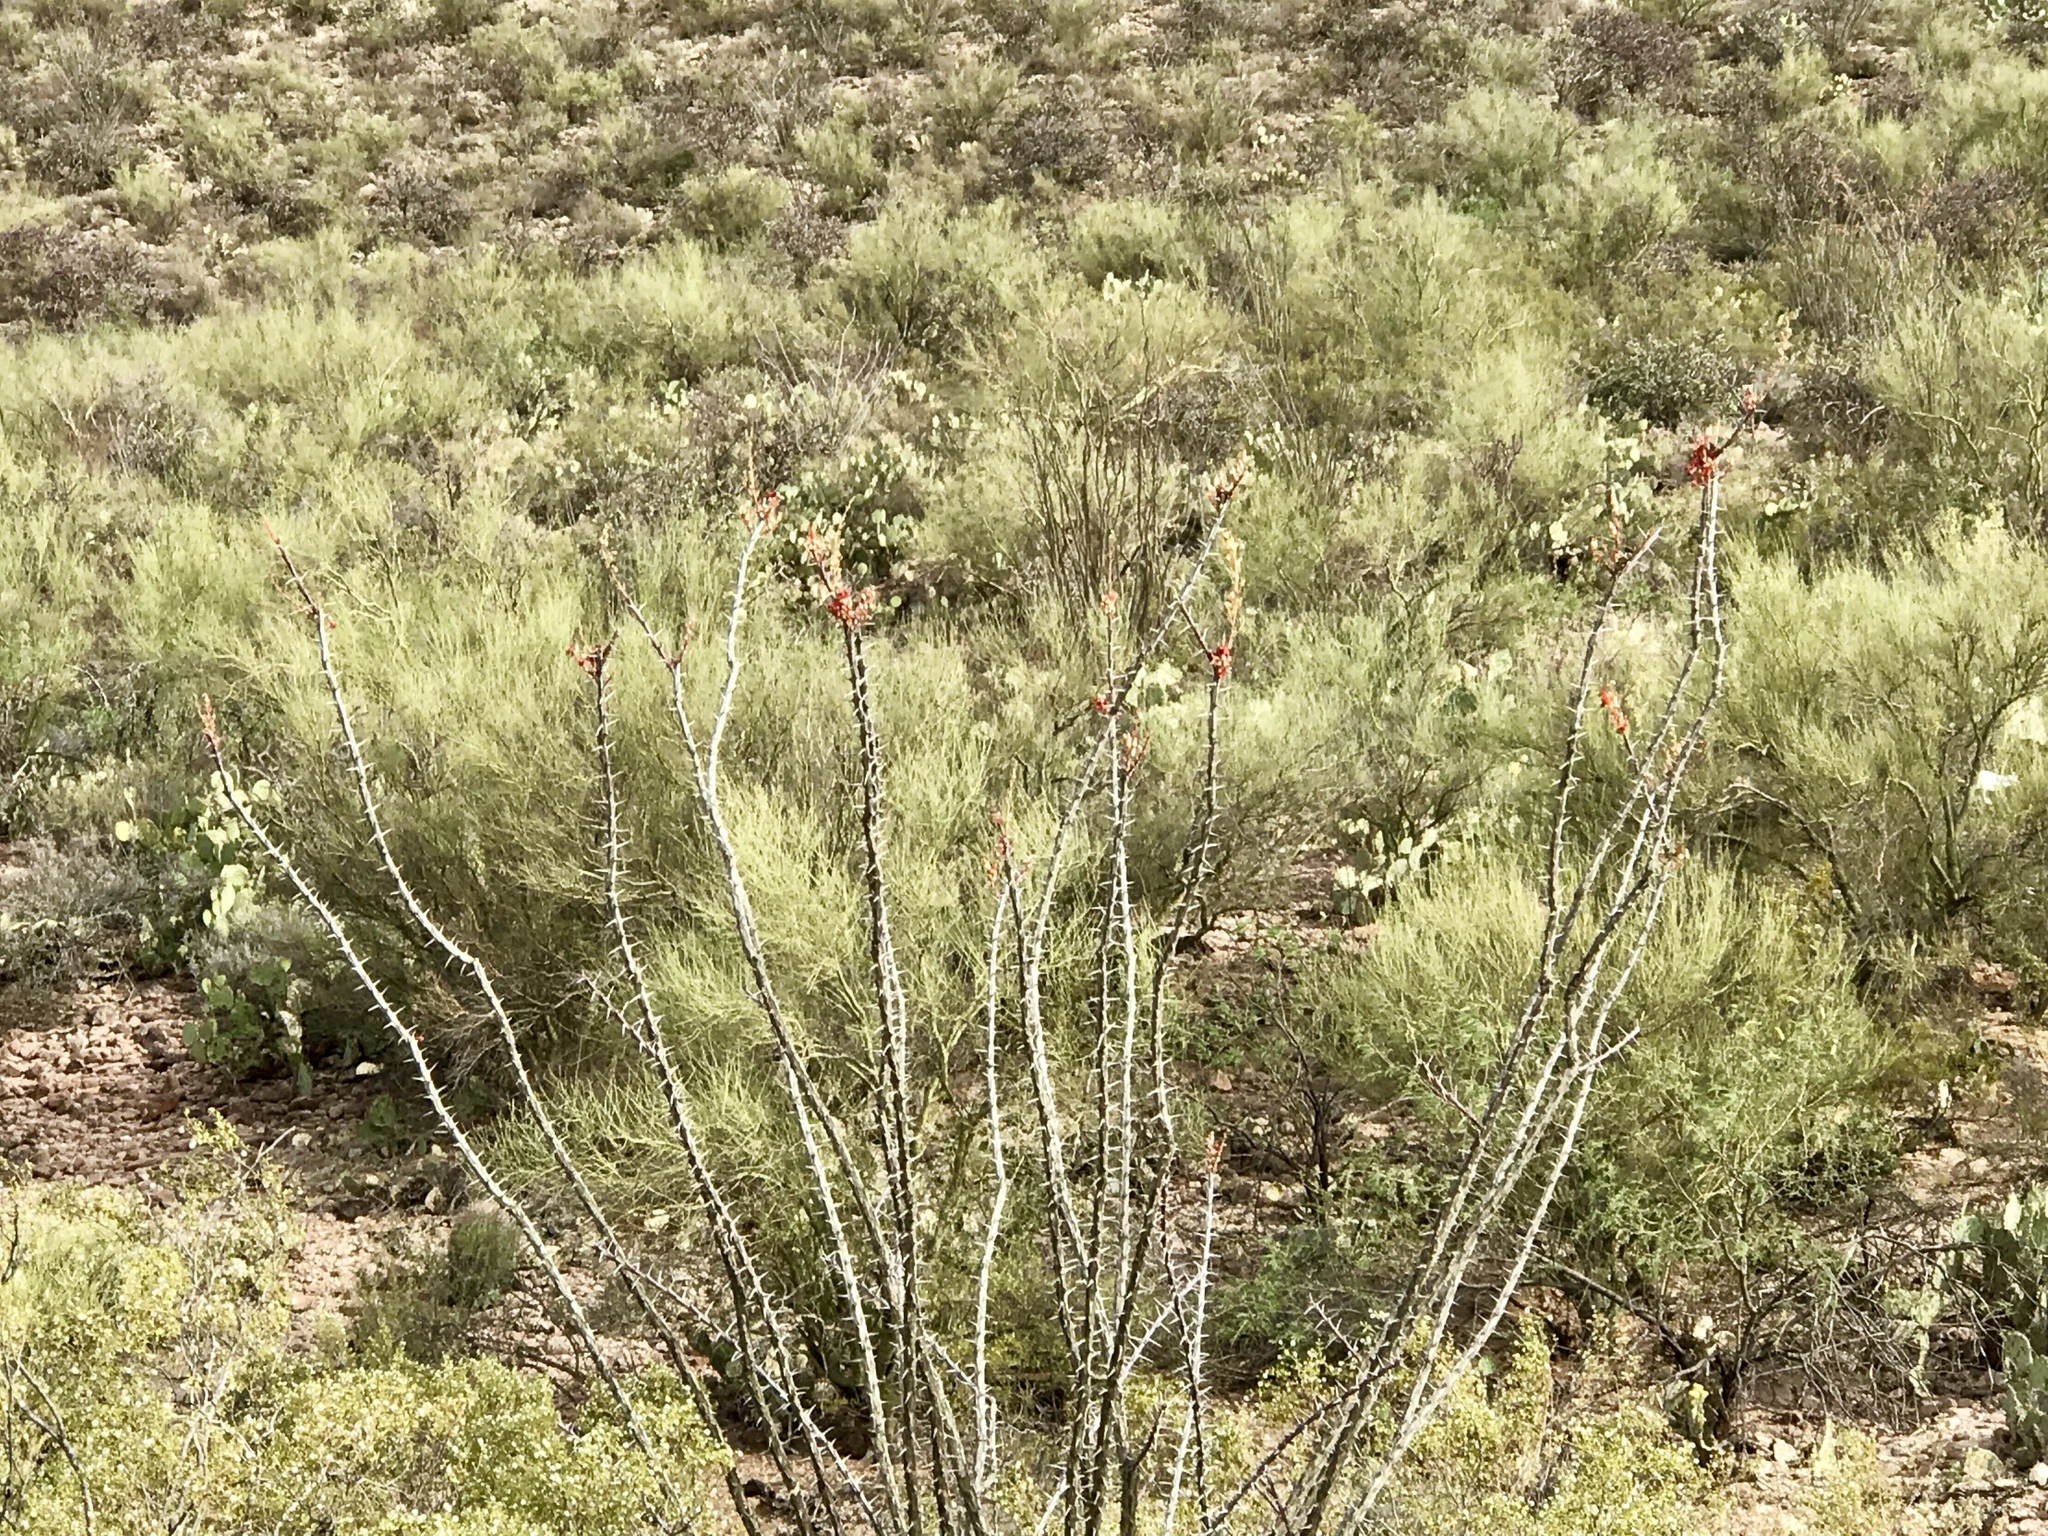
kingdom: Plantae
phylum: Tracheophyta
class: Magnoliopsida
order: Ericales
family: Fouquieriaceae
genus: Fouquieria
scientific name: Fouquieria splendens
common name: Vine-cactus
